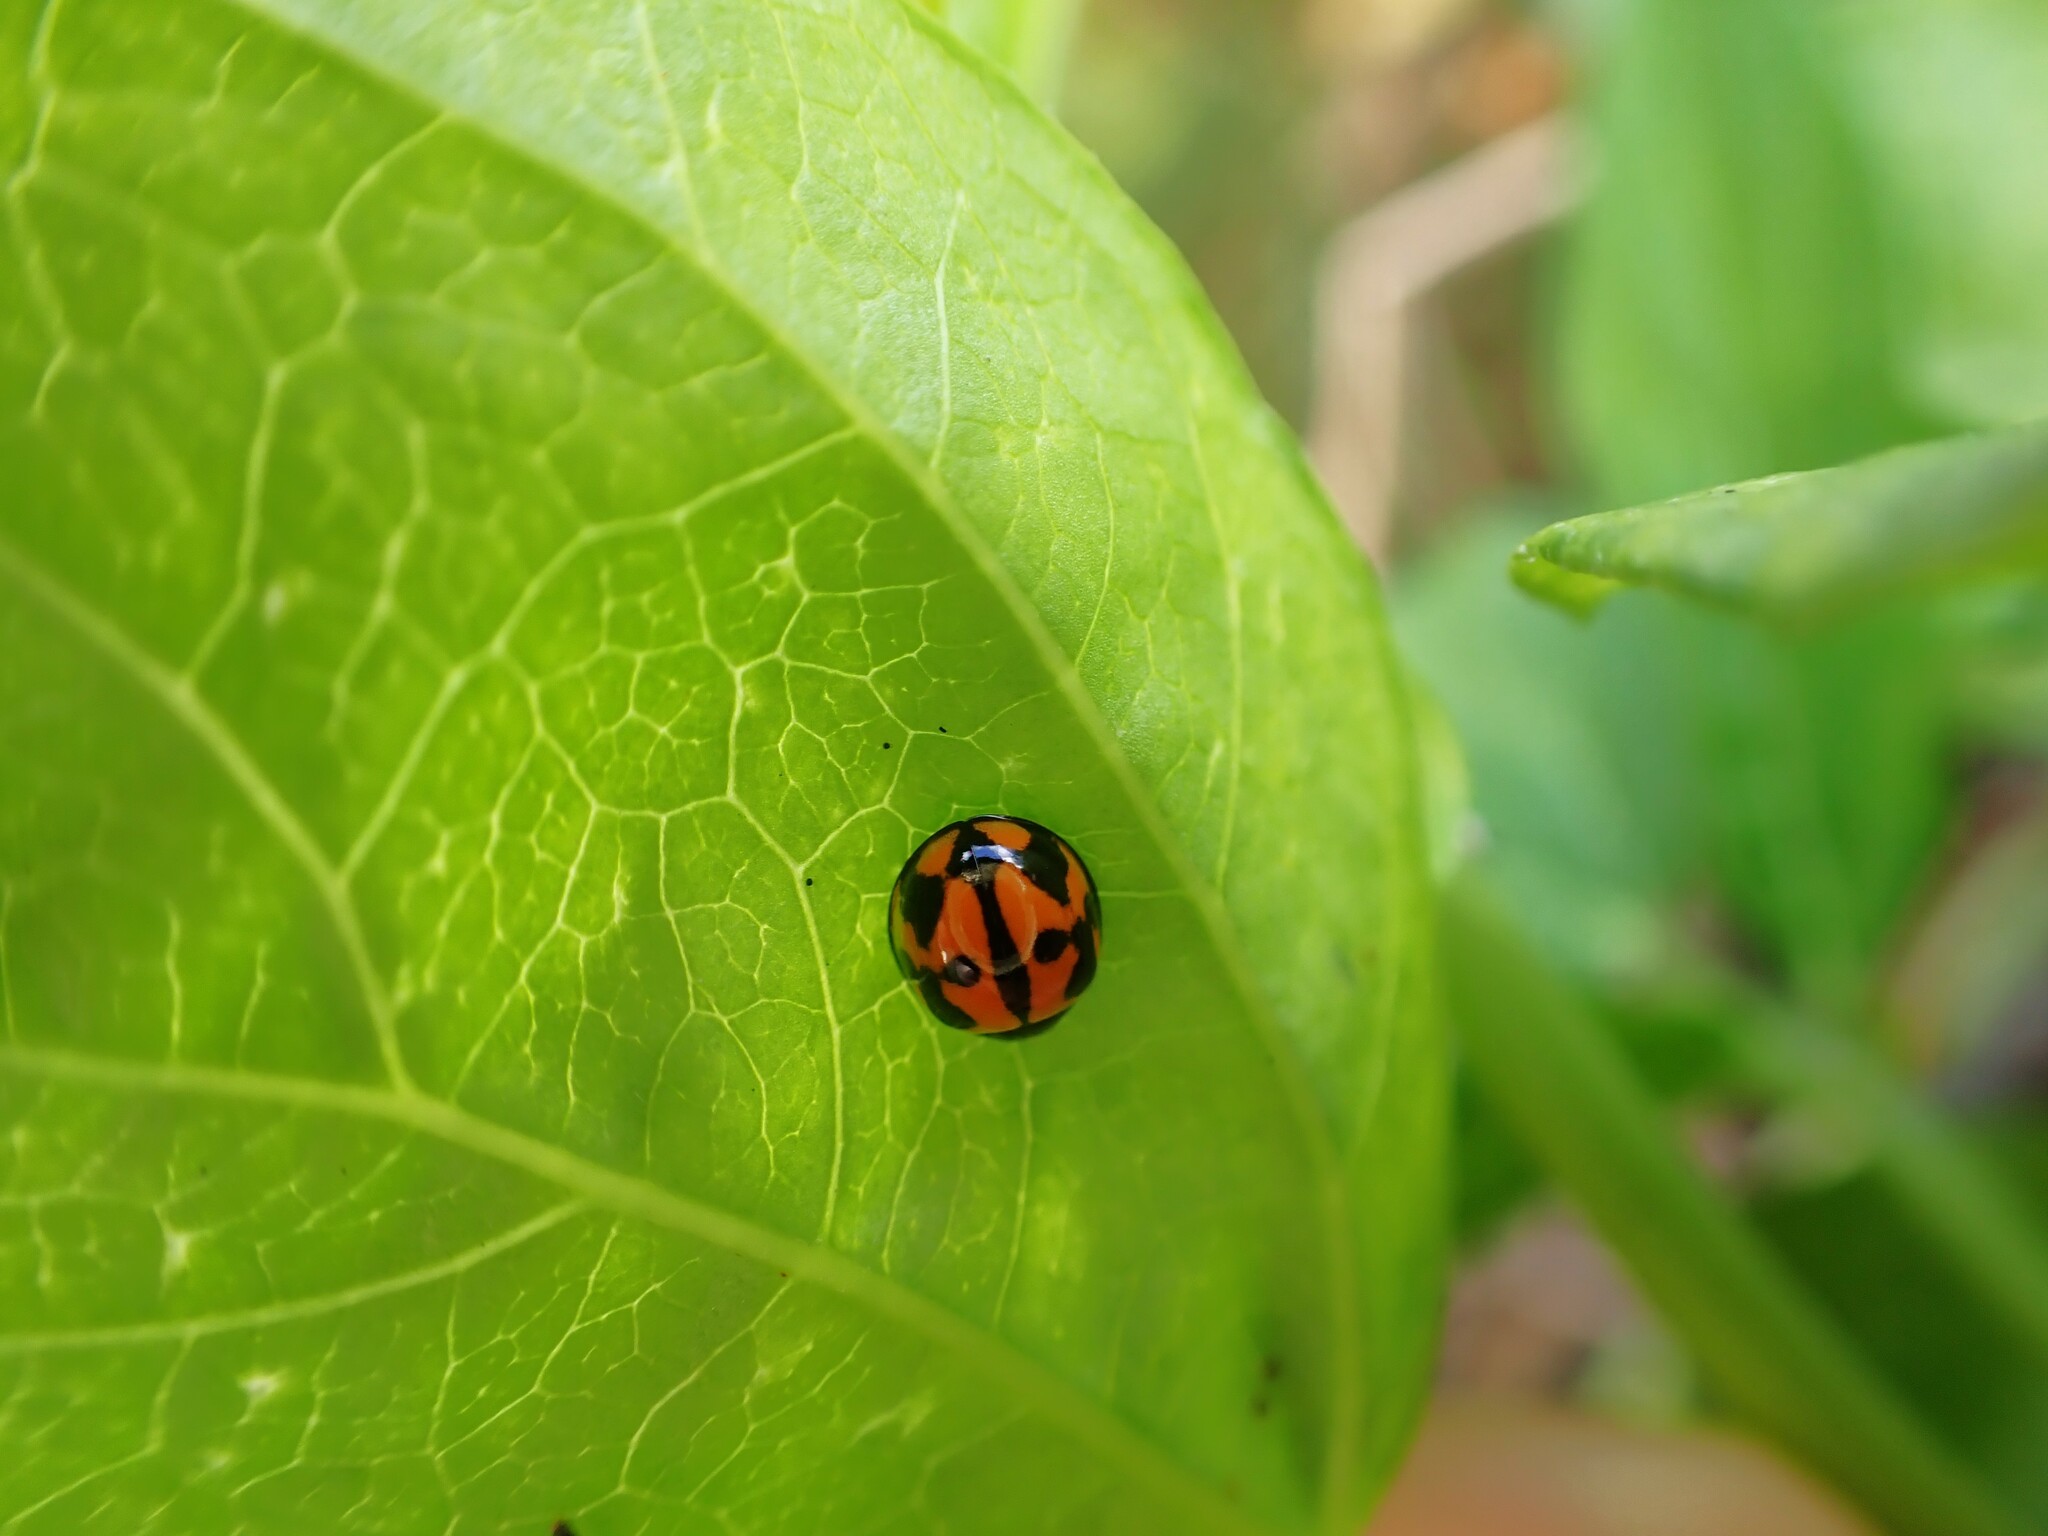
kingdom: Animalia
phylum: Arthropoda
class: Insecta
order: Coleoptera
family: Coccinellidae
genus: Coelophora
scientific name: Coelophora inaequalis
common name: Common australian lady beetle
